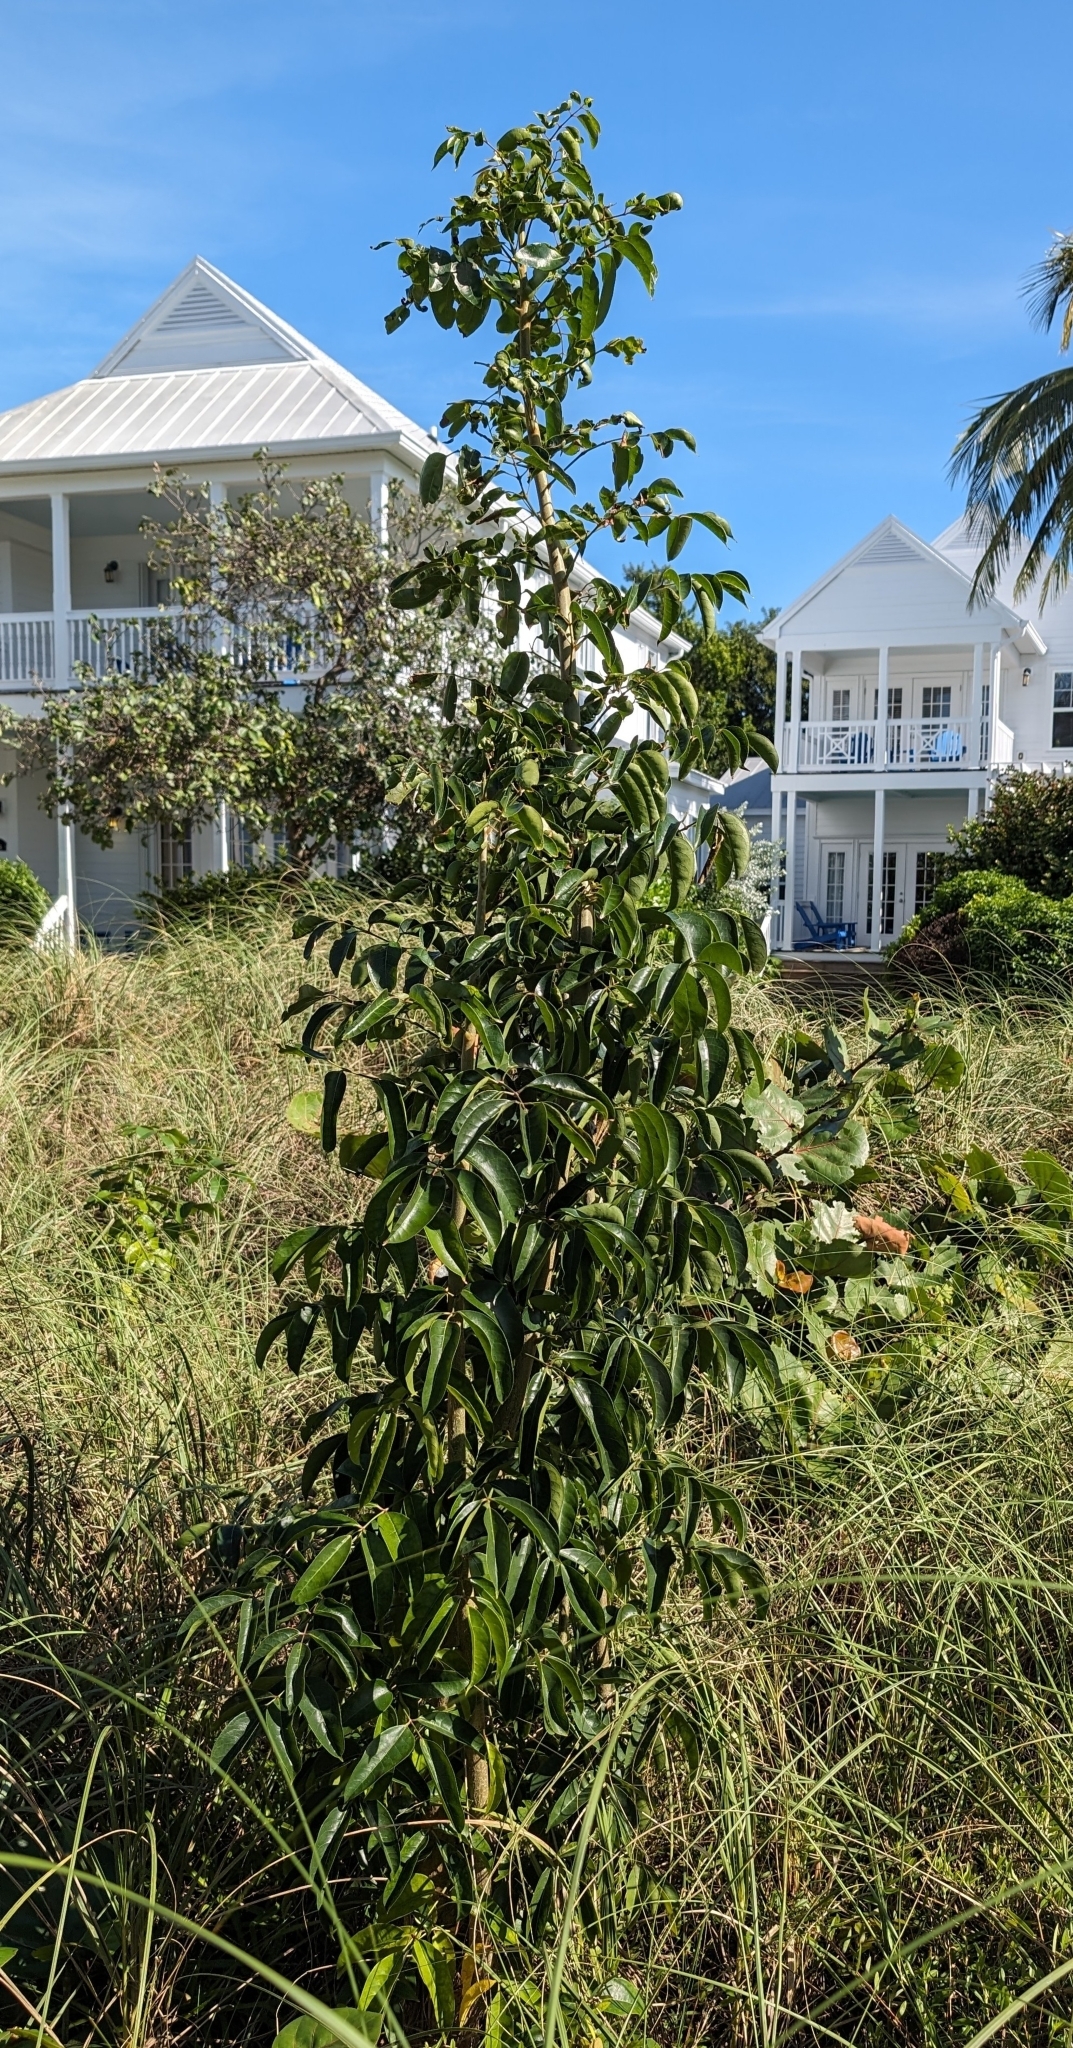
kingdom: Plantae
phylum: Tracheophyta
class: Magnoliopsida
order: Sapindales
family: Burseraceae
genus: Bursera
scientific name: Bursera simaruba
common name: Turpentine tree
